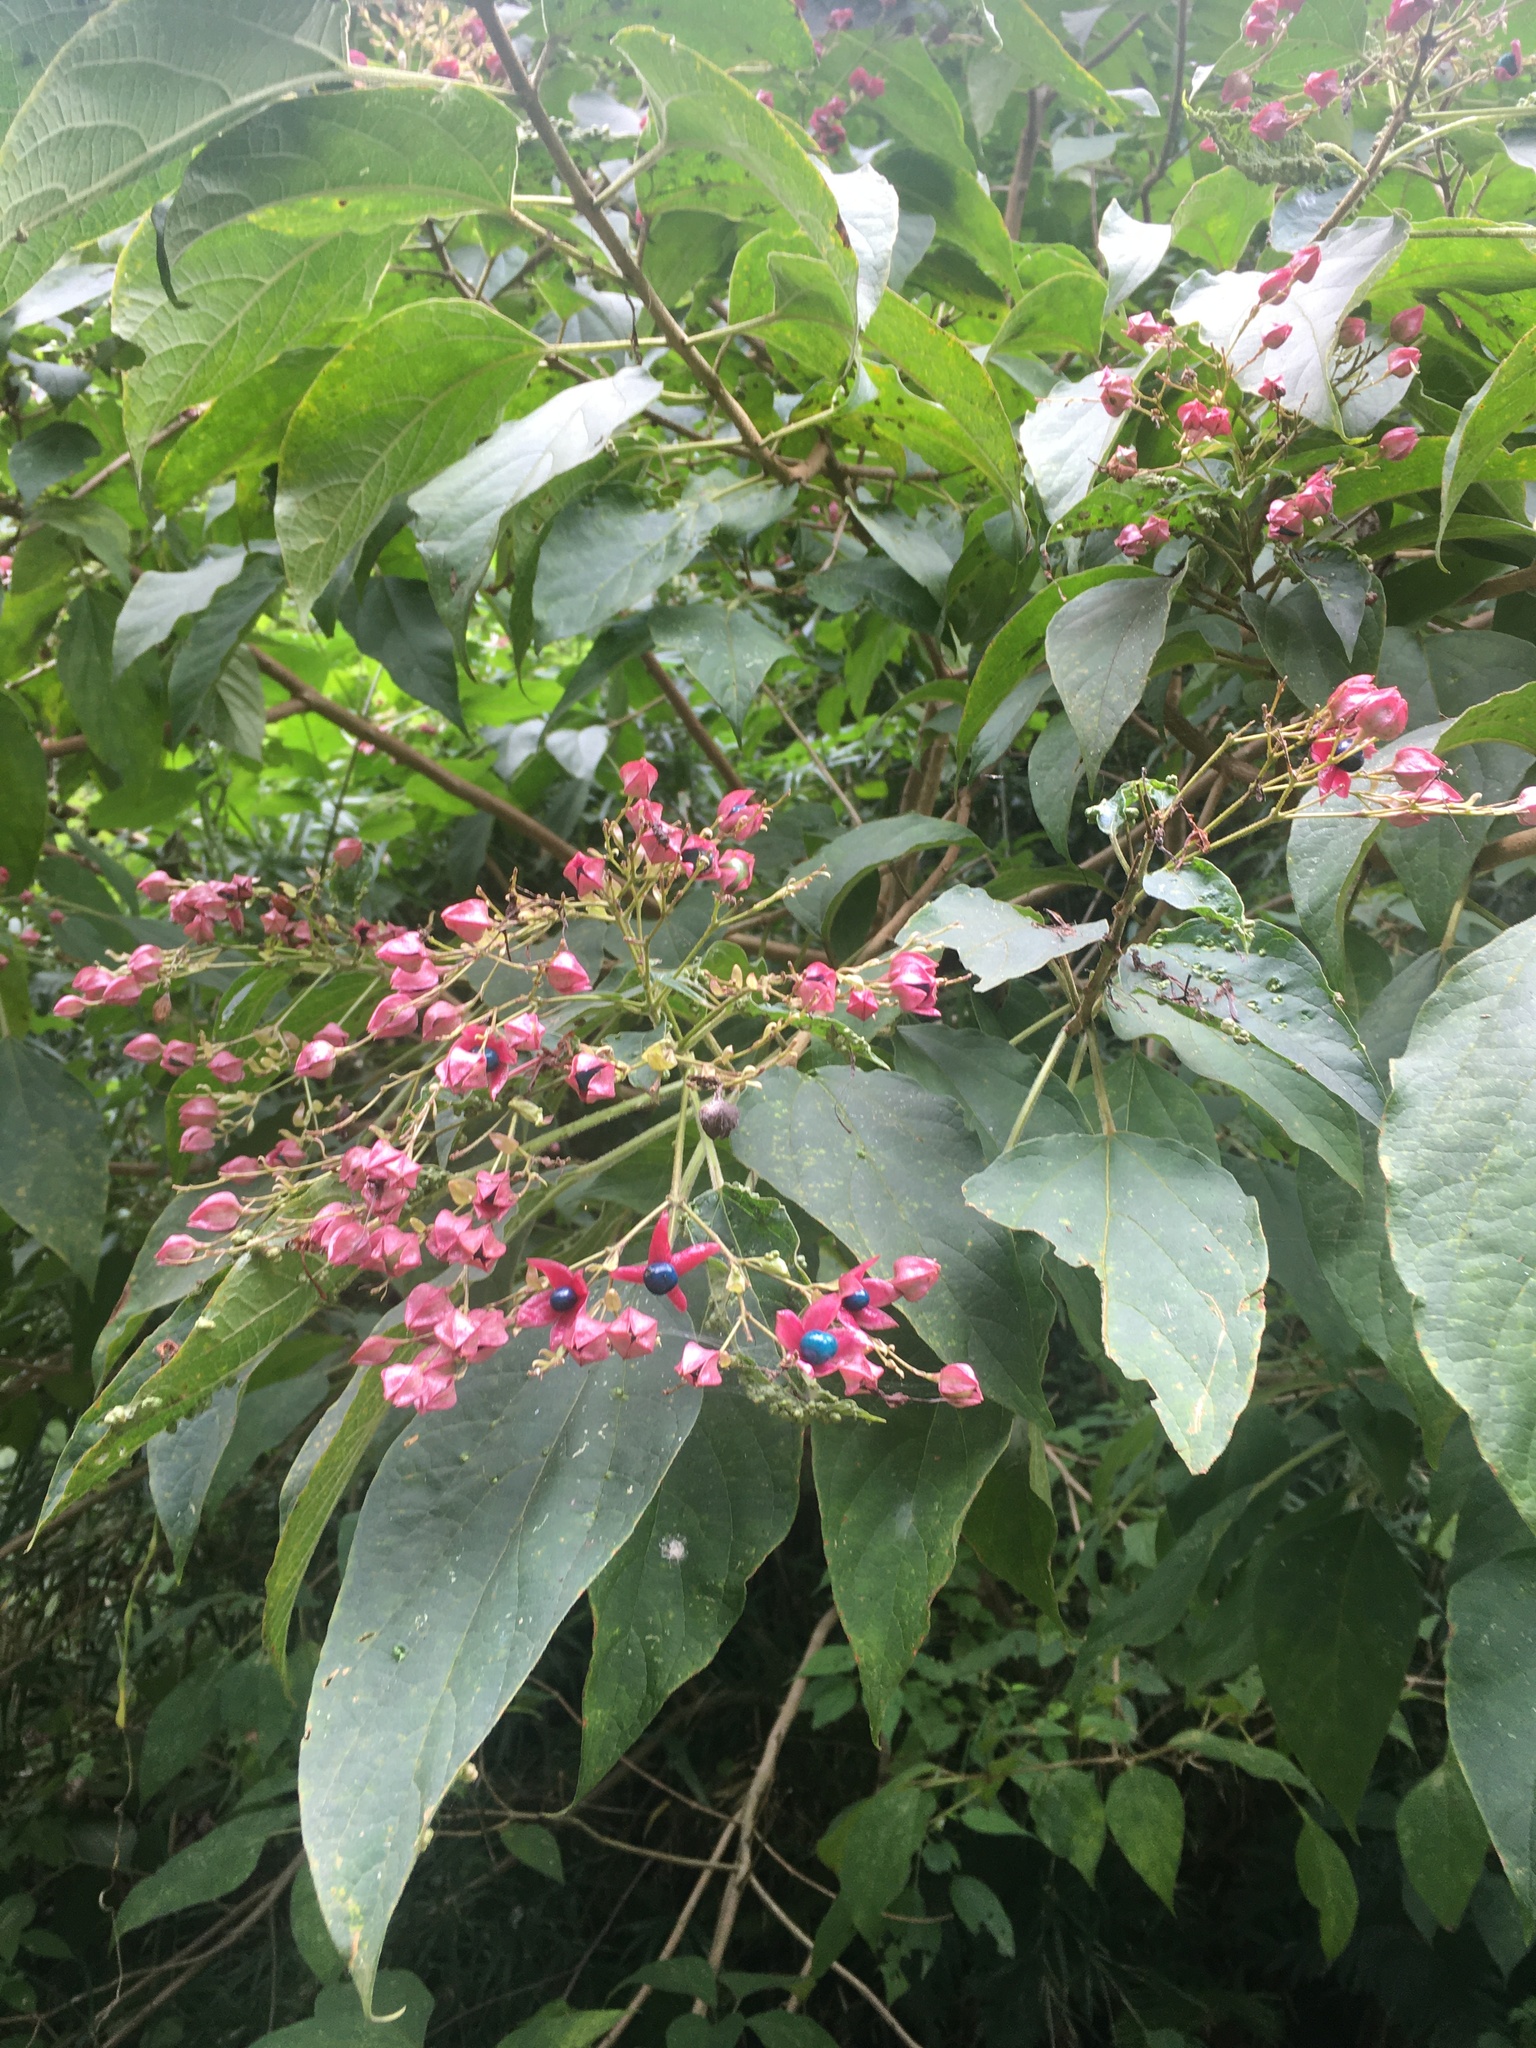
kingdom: Plantae
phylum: Tracheophyta
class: Magnoliopsida
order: Lamiales
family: Lamiaceae
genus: Clerodendrum
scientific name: Clerodendrum trichotomum
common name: Harlequin glorybower
